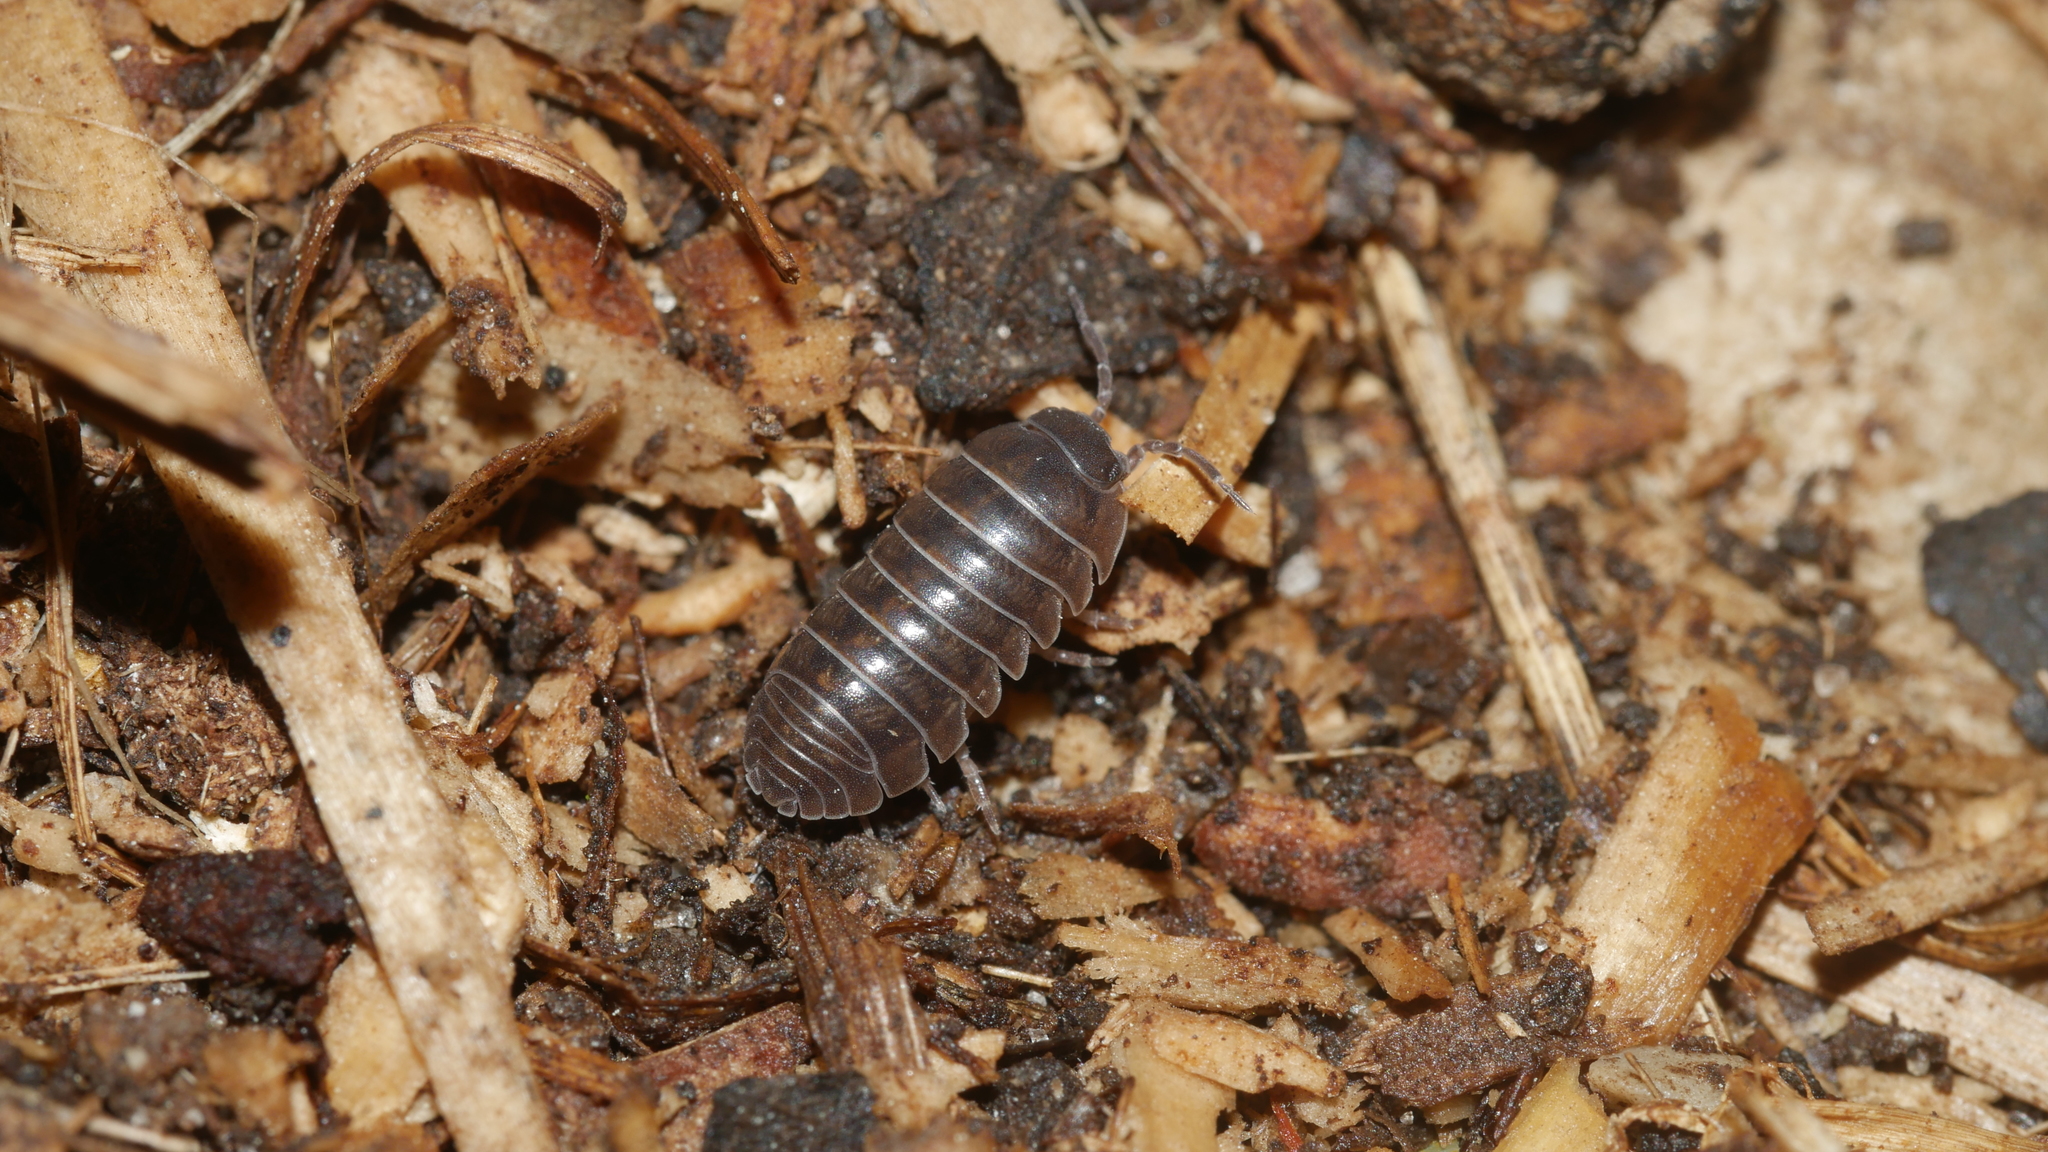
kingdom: Animalia
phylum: Arthropoda
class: Malacostraca
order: Isopoda
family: Armadillidiidae
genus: Armadillidium
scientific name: Armadillidium vulgare
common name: Common pill woodlouse
